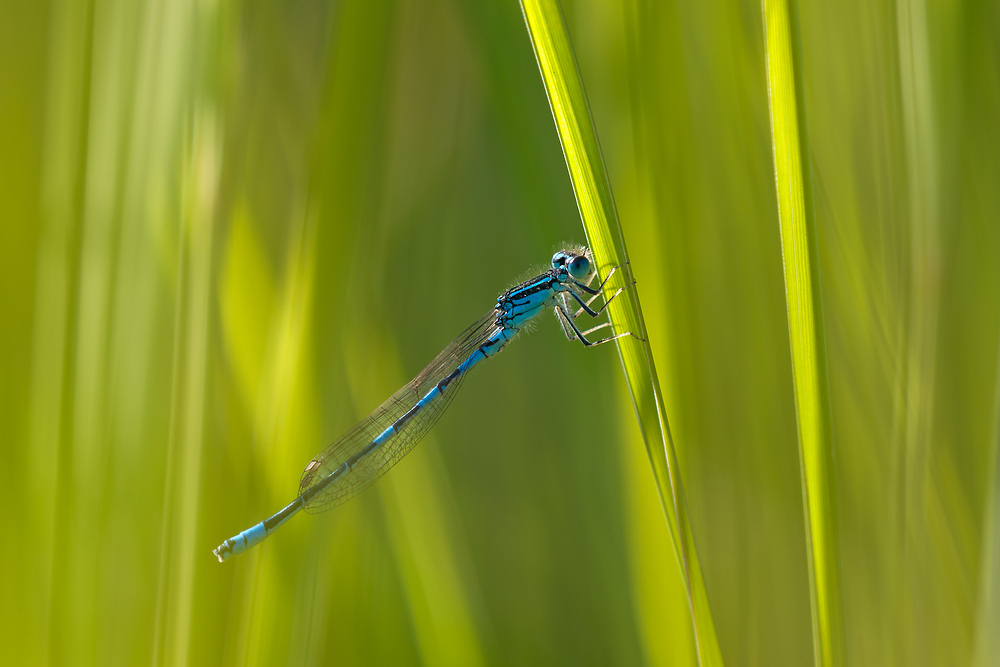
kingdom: Animalia
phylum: Arthropoda
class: Insecta
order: Odonata
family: Coenagrionidae
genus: Coenagrion
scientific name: Coenagrion scitulum
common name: Dainty bluet
